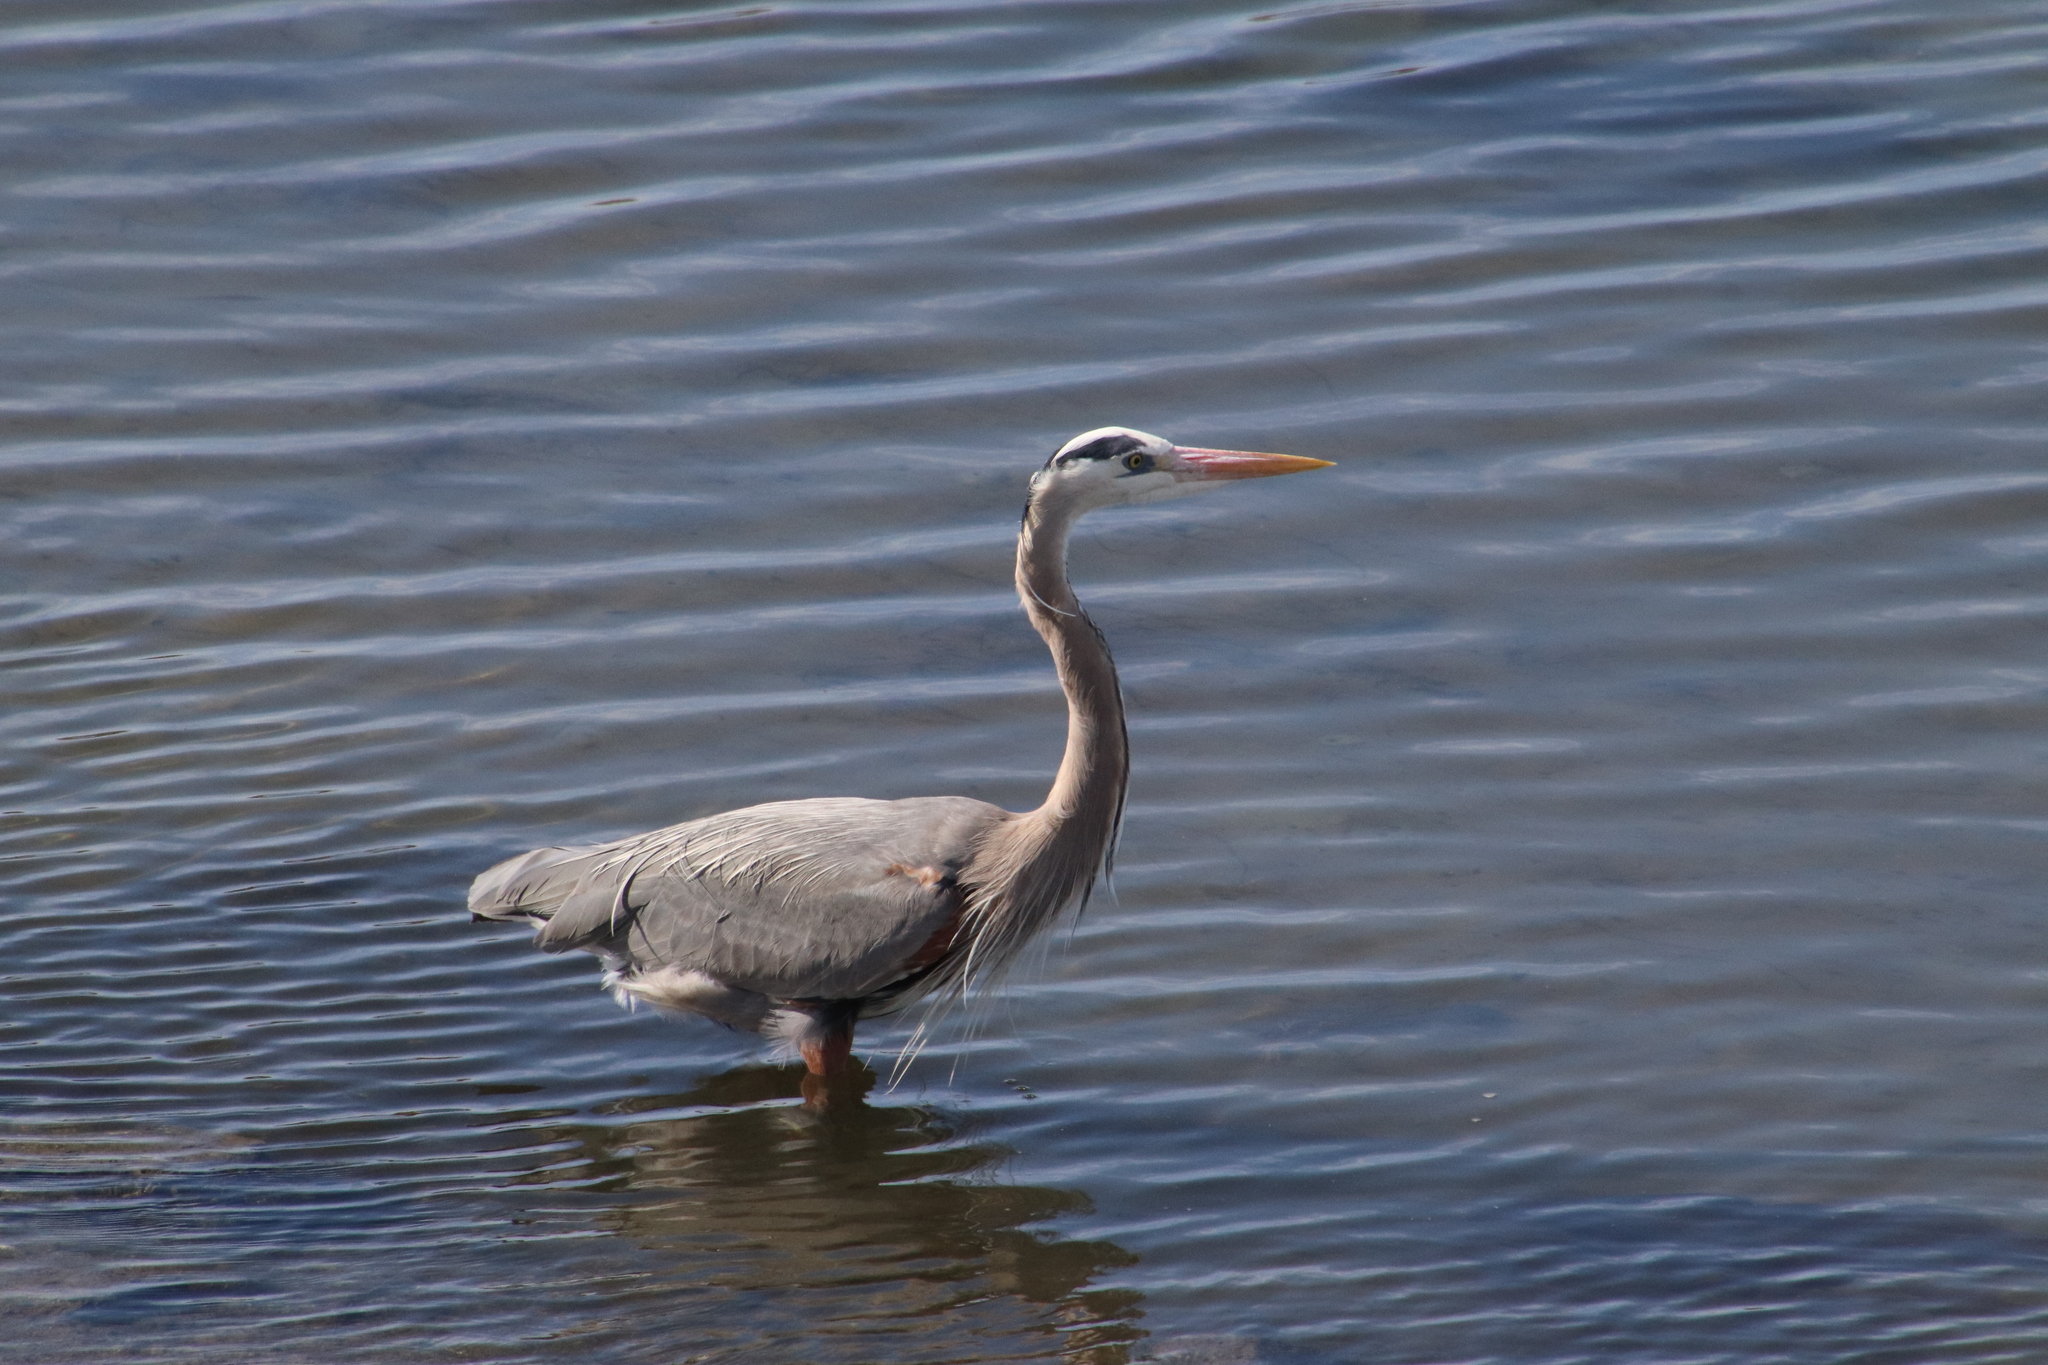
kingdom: Animalia
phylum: Chordata
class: Aves
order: Pelecaniformes
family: Ardeidae
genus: Ardea
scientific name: Ardea herodias
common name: Great blue heron
